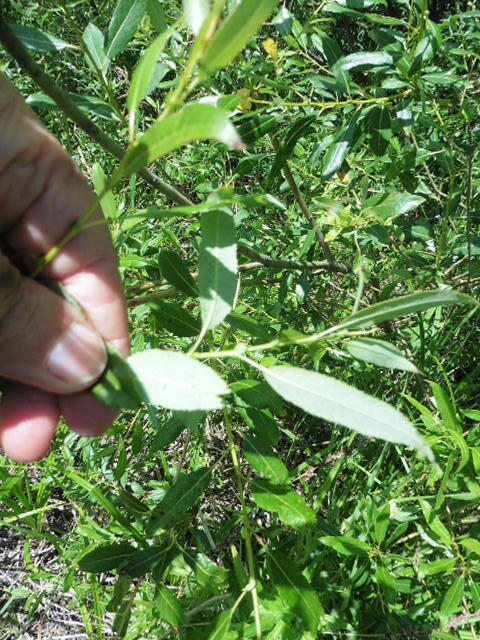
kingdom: Plantae
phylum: Tracheophyta
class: Magnoliopsida
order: Malpighiales
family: Salicaceae
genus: Salix
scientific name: Salix triandra
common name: Almond willow
